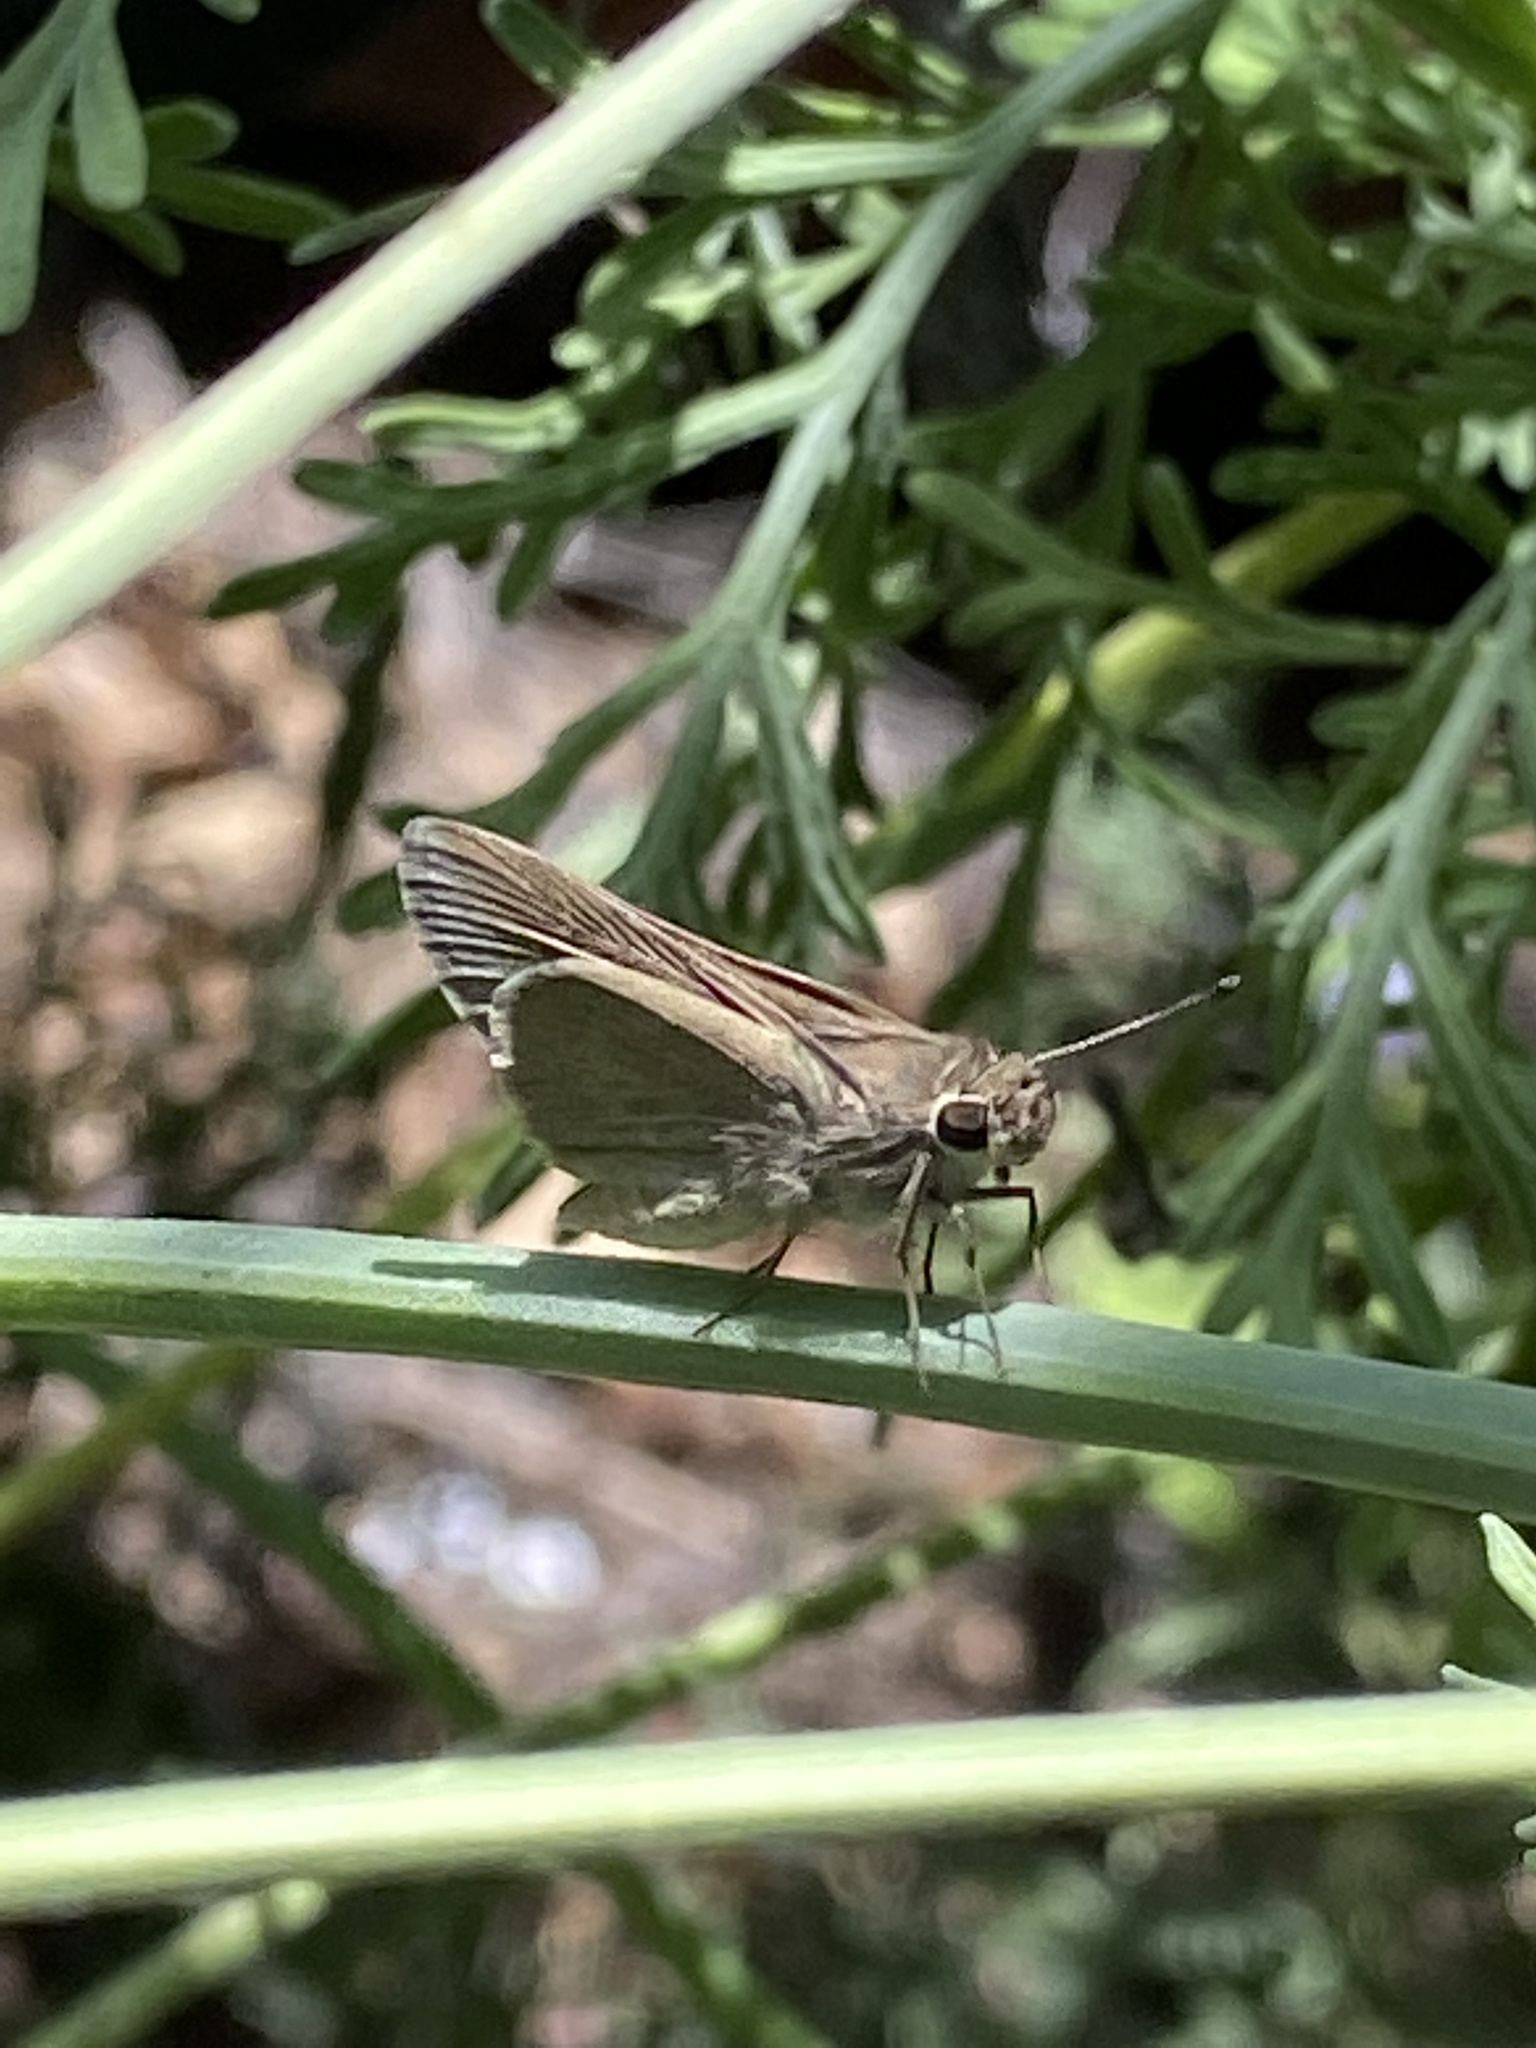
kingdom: Animalia
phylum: Arthropoda
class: Insecta
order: Lepidoptera
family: Hesperiidae
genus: Lerodea
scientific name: Lerodea eufala
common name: Eufala skipper
